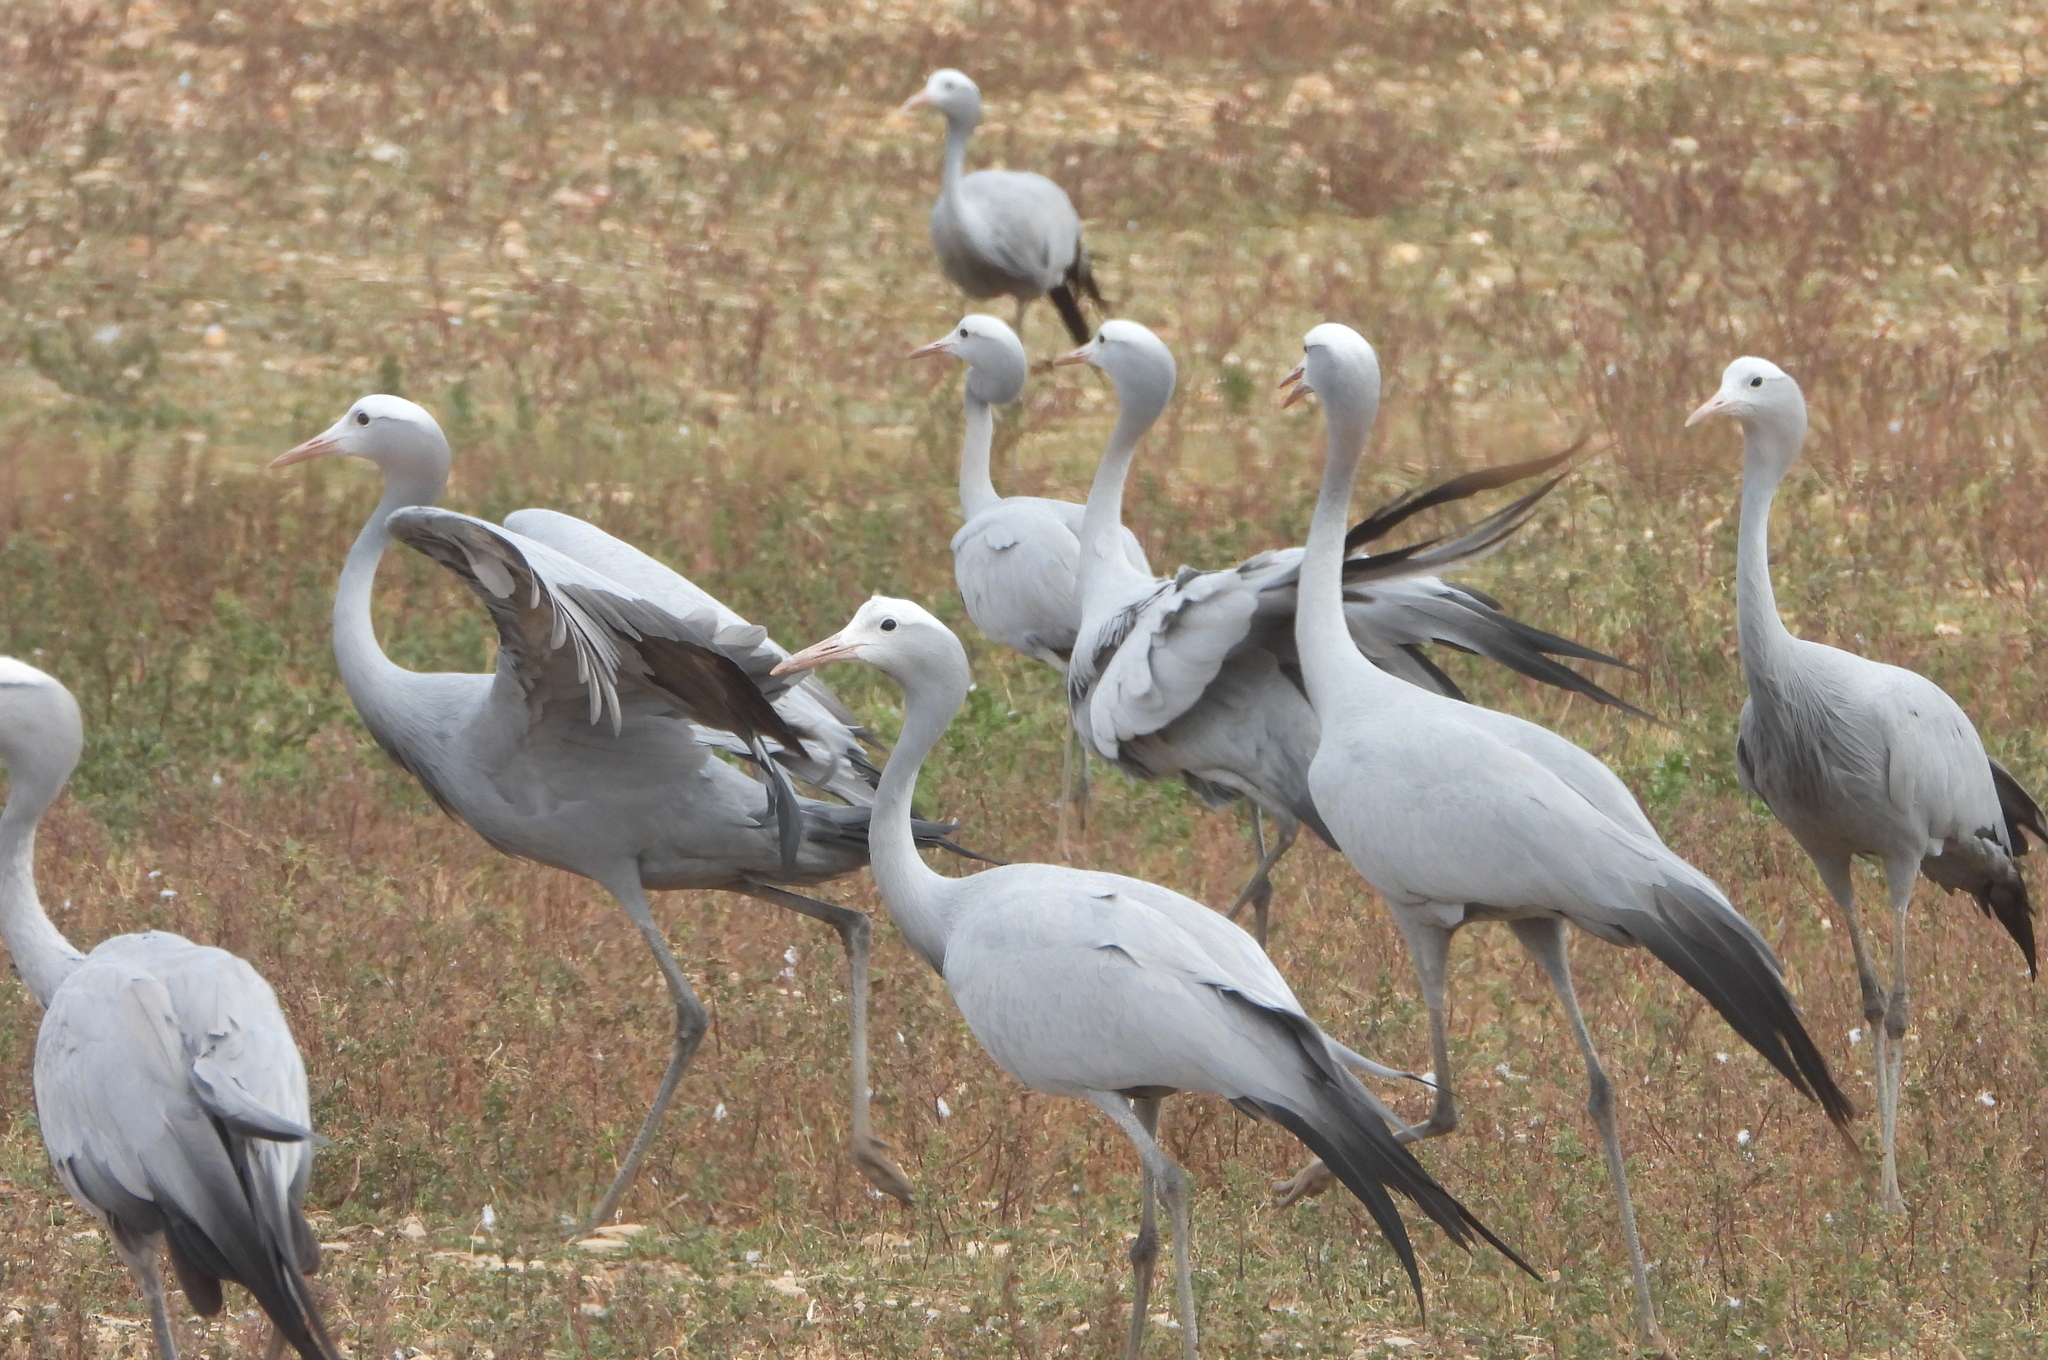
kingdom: Animalia
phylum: Chordata
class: Aves
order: Gruiformes
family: Gruidae
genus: Anthropoides
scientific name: Anthropoides paradiseus
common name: Blue crane
